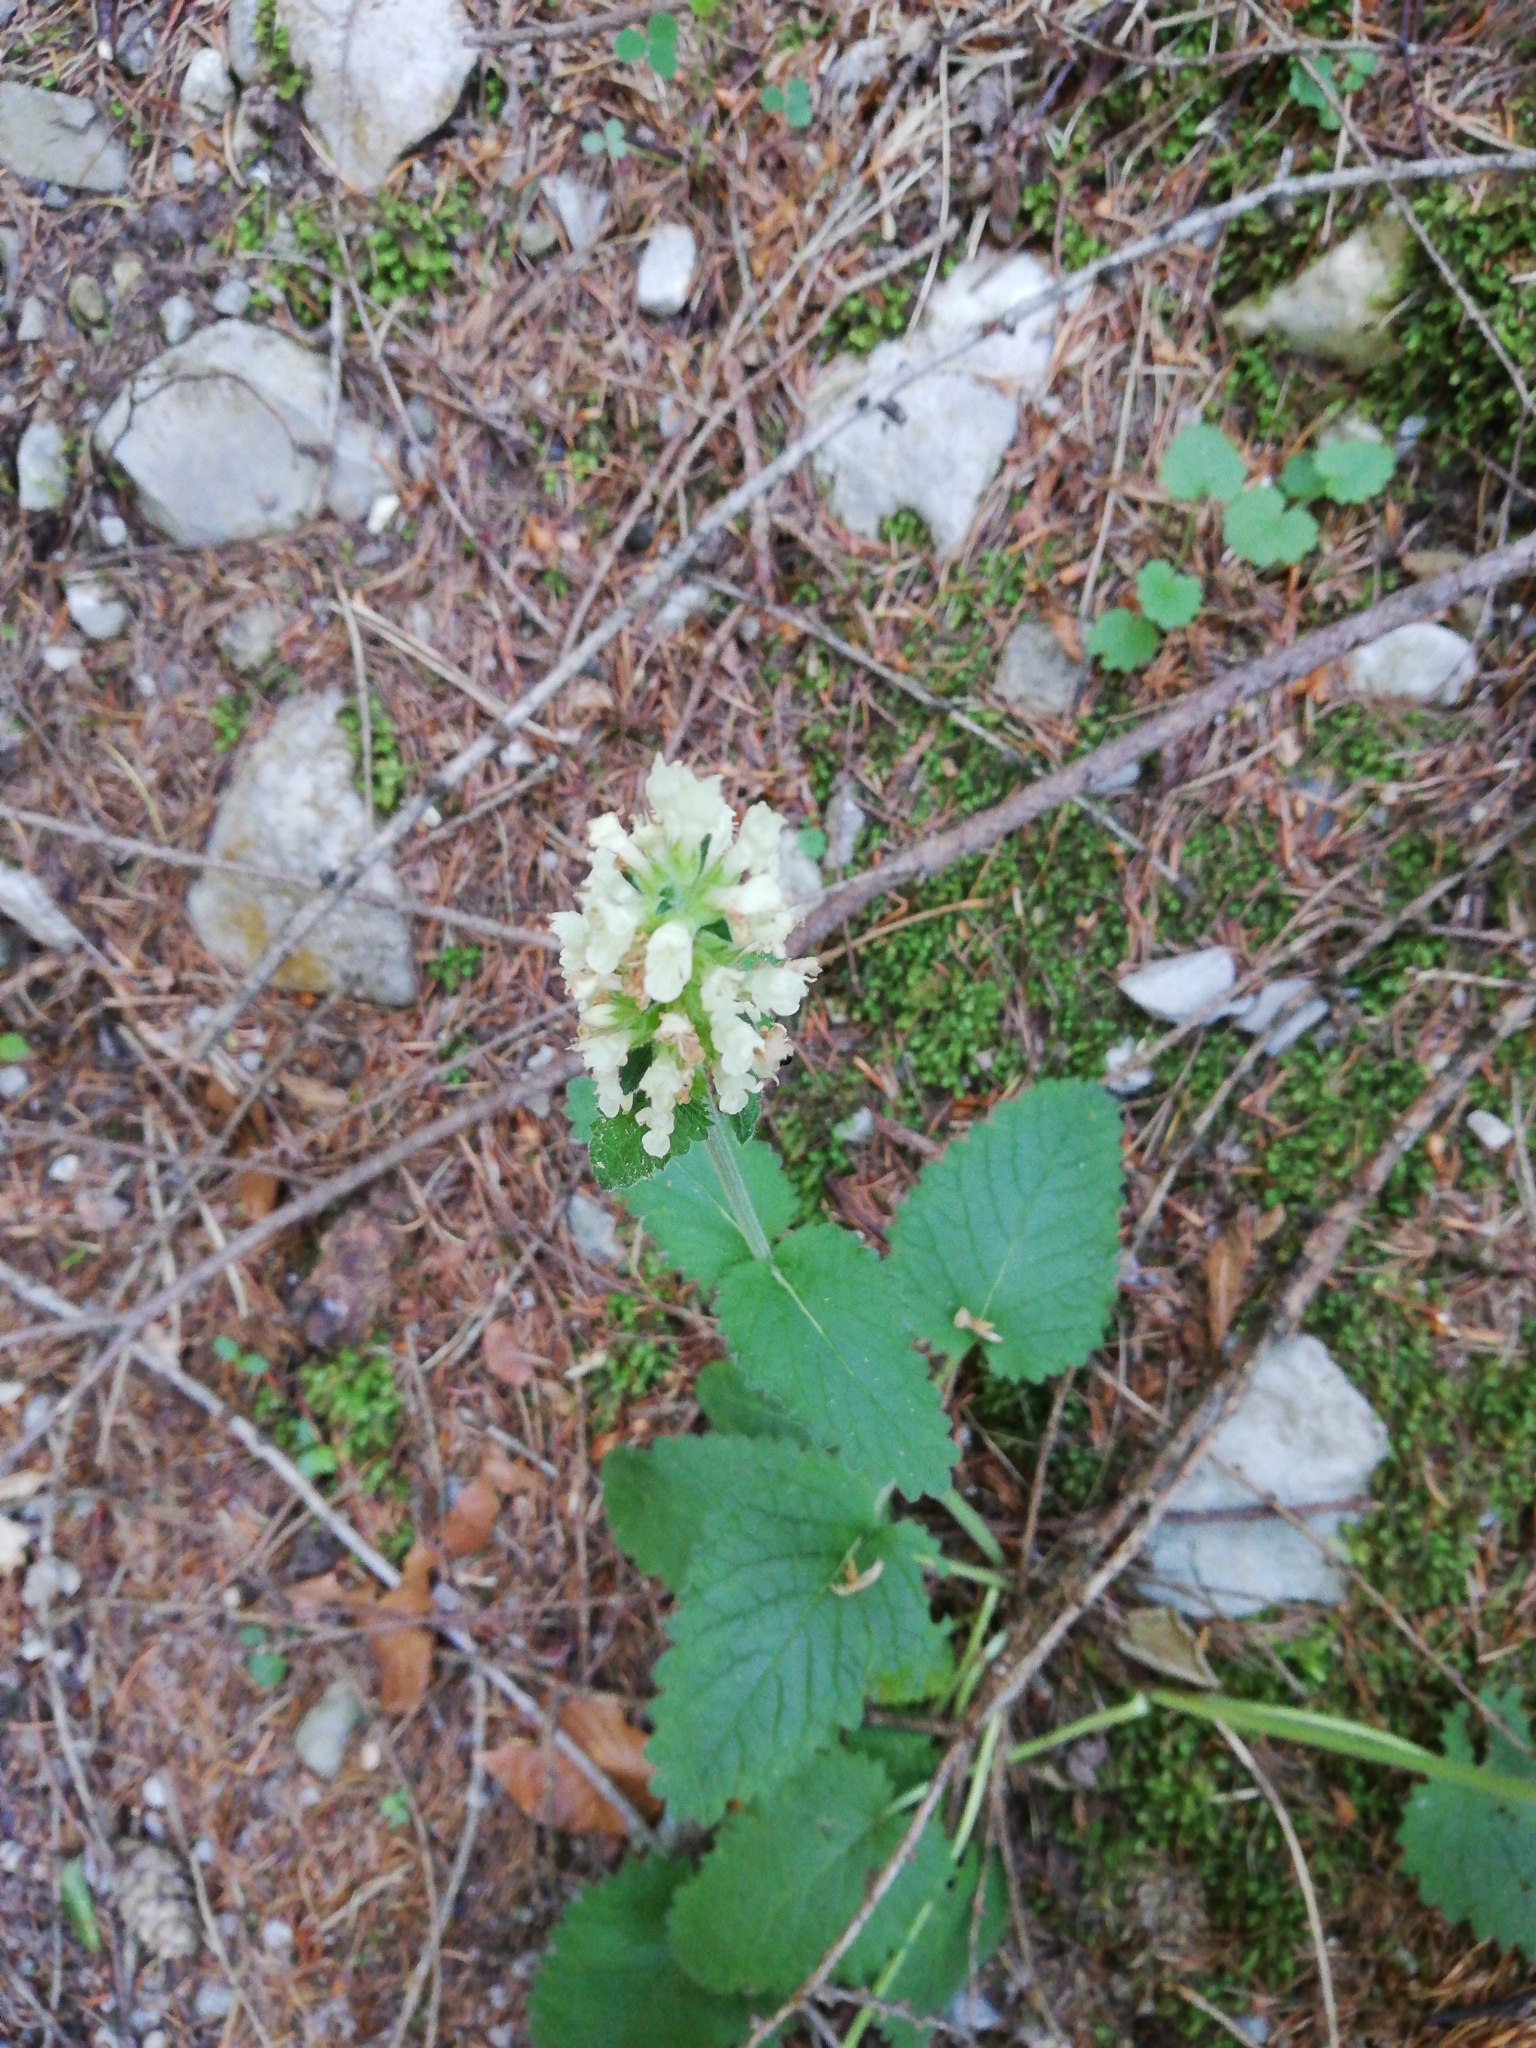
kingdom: Plantae
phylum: Tracheophyta
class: Magnoliopsida
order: Lamiales
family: Lamiaceae
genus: Betonica
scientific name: Betonica alopecuros
